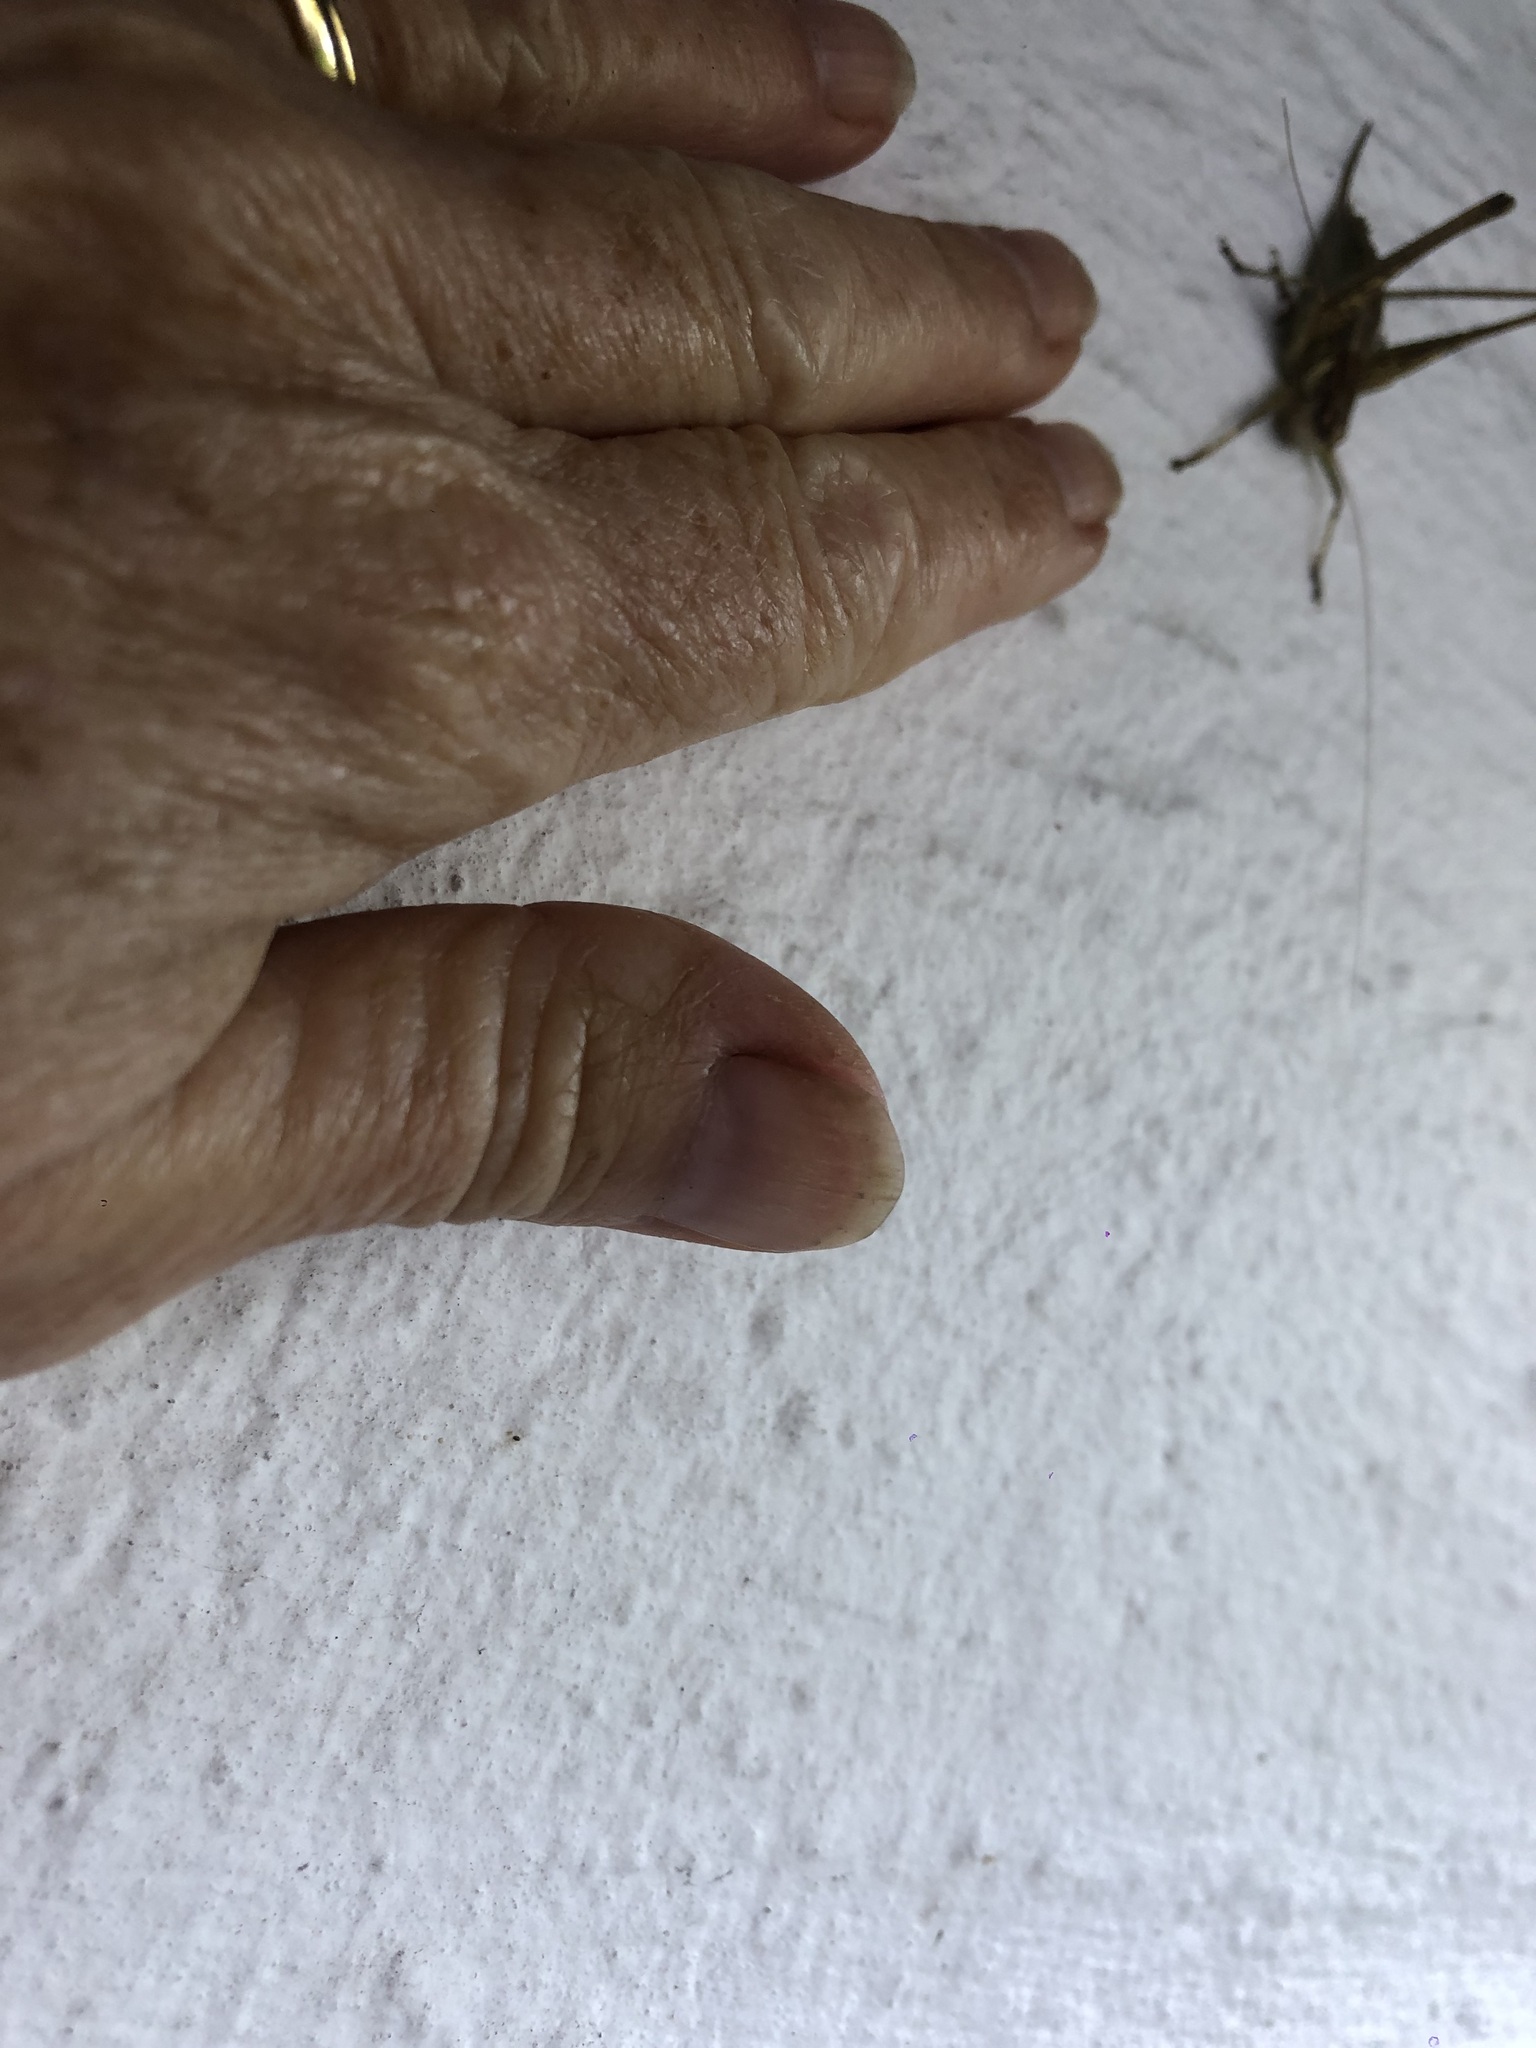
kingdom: Animalia
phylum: Arthropoda
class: Insecta
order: Orthoptera
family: Tettigoniidae
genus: Rhacocleis
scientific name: Rhacocleis annulata
